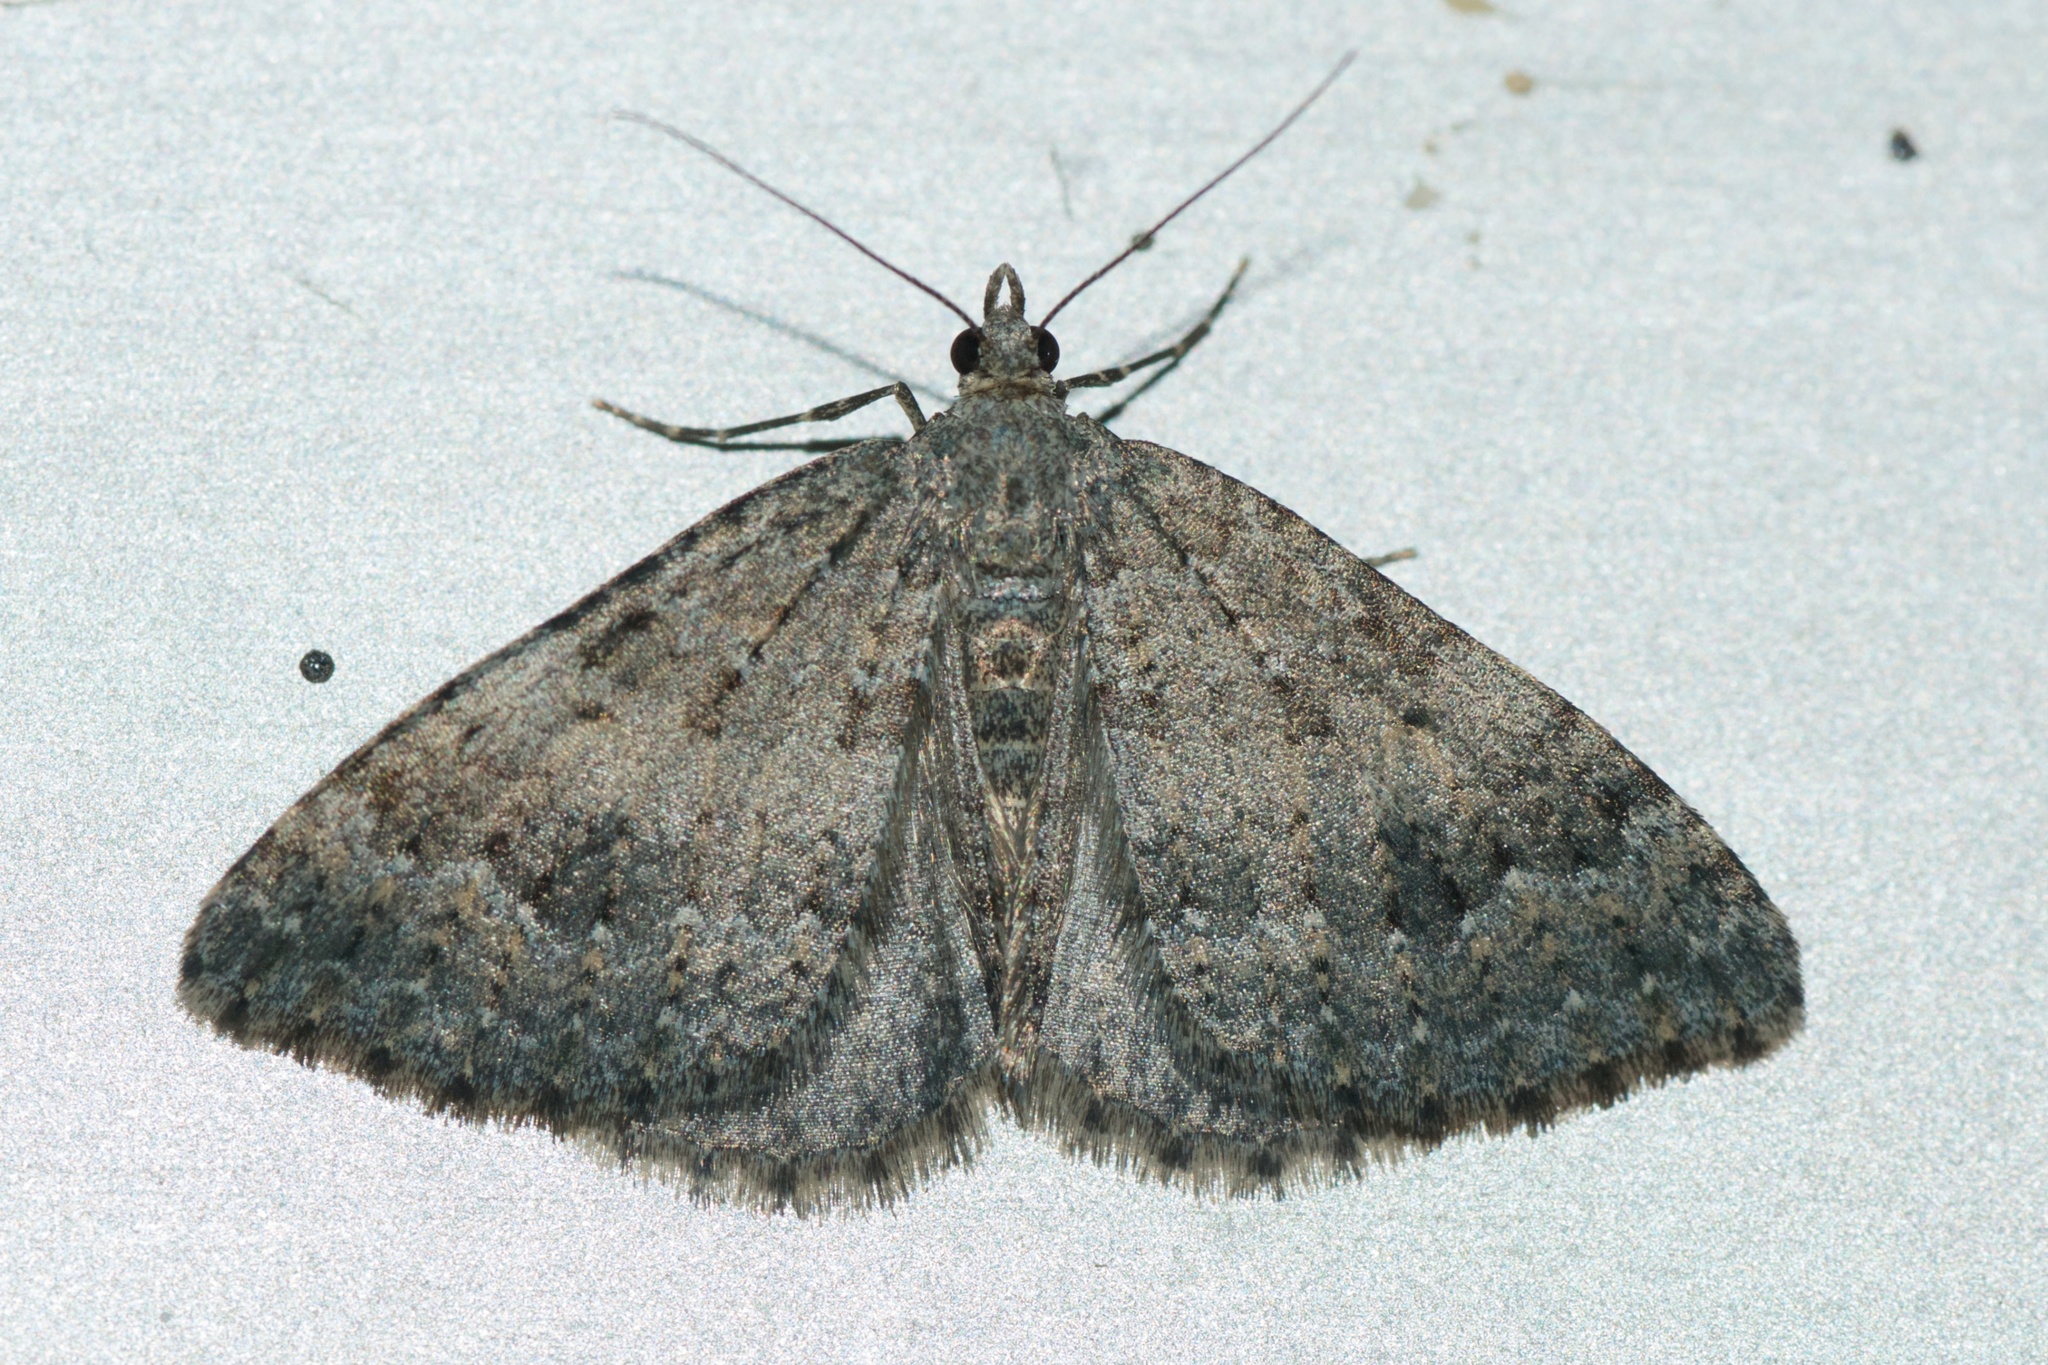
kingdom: Animalia
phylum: Arthropoda
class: Insecta
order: Lepidoptera
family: Geometridae
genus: Helastia
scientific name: Helastia corcularia
